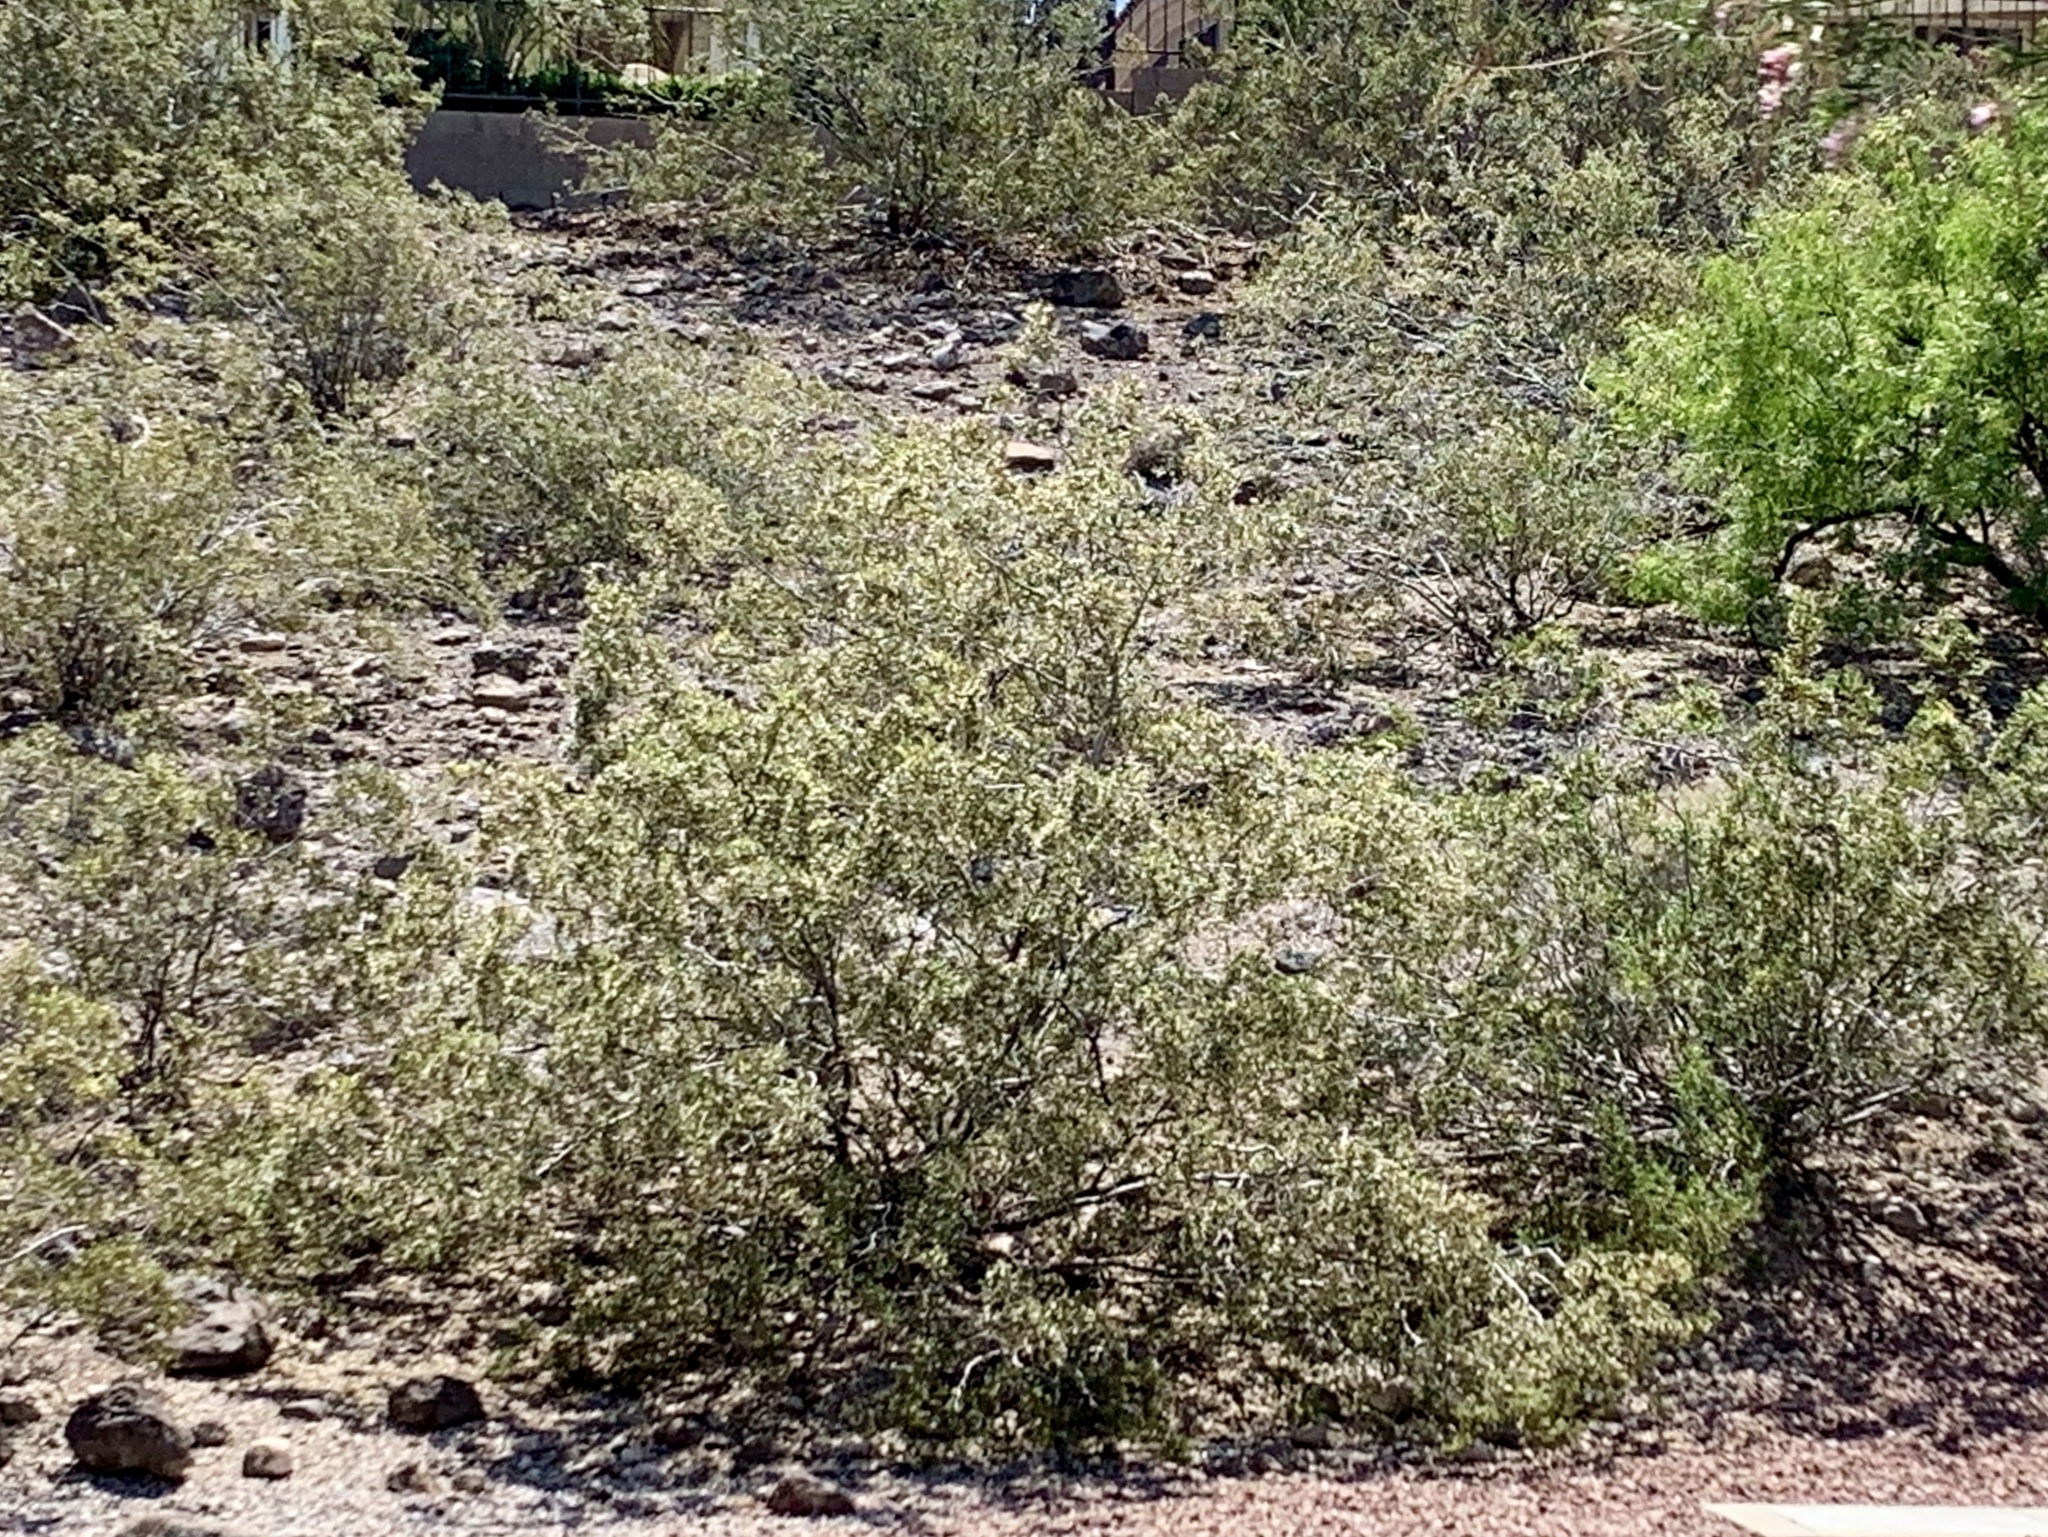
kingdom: Plantae
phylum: Tracheophyta
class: Magnoliopsida
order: Zygophyllales
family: Zygophyllaceae
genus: Larrea
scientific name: Larrea tridentata
